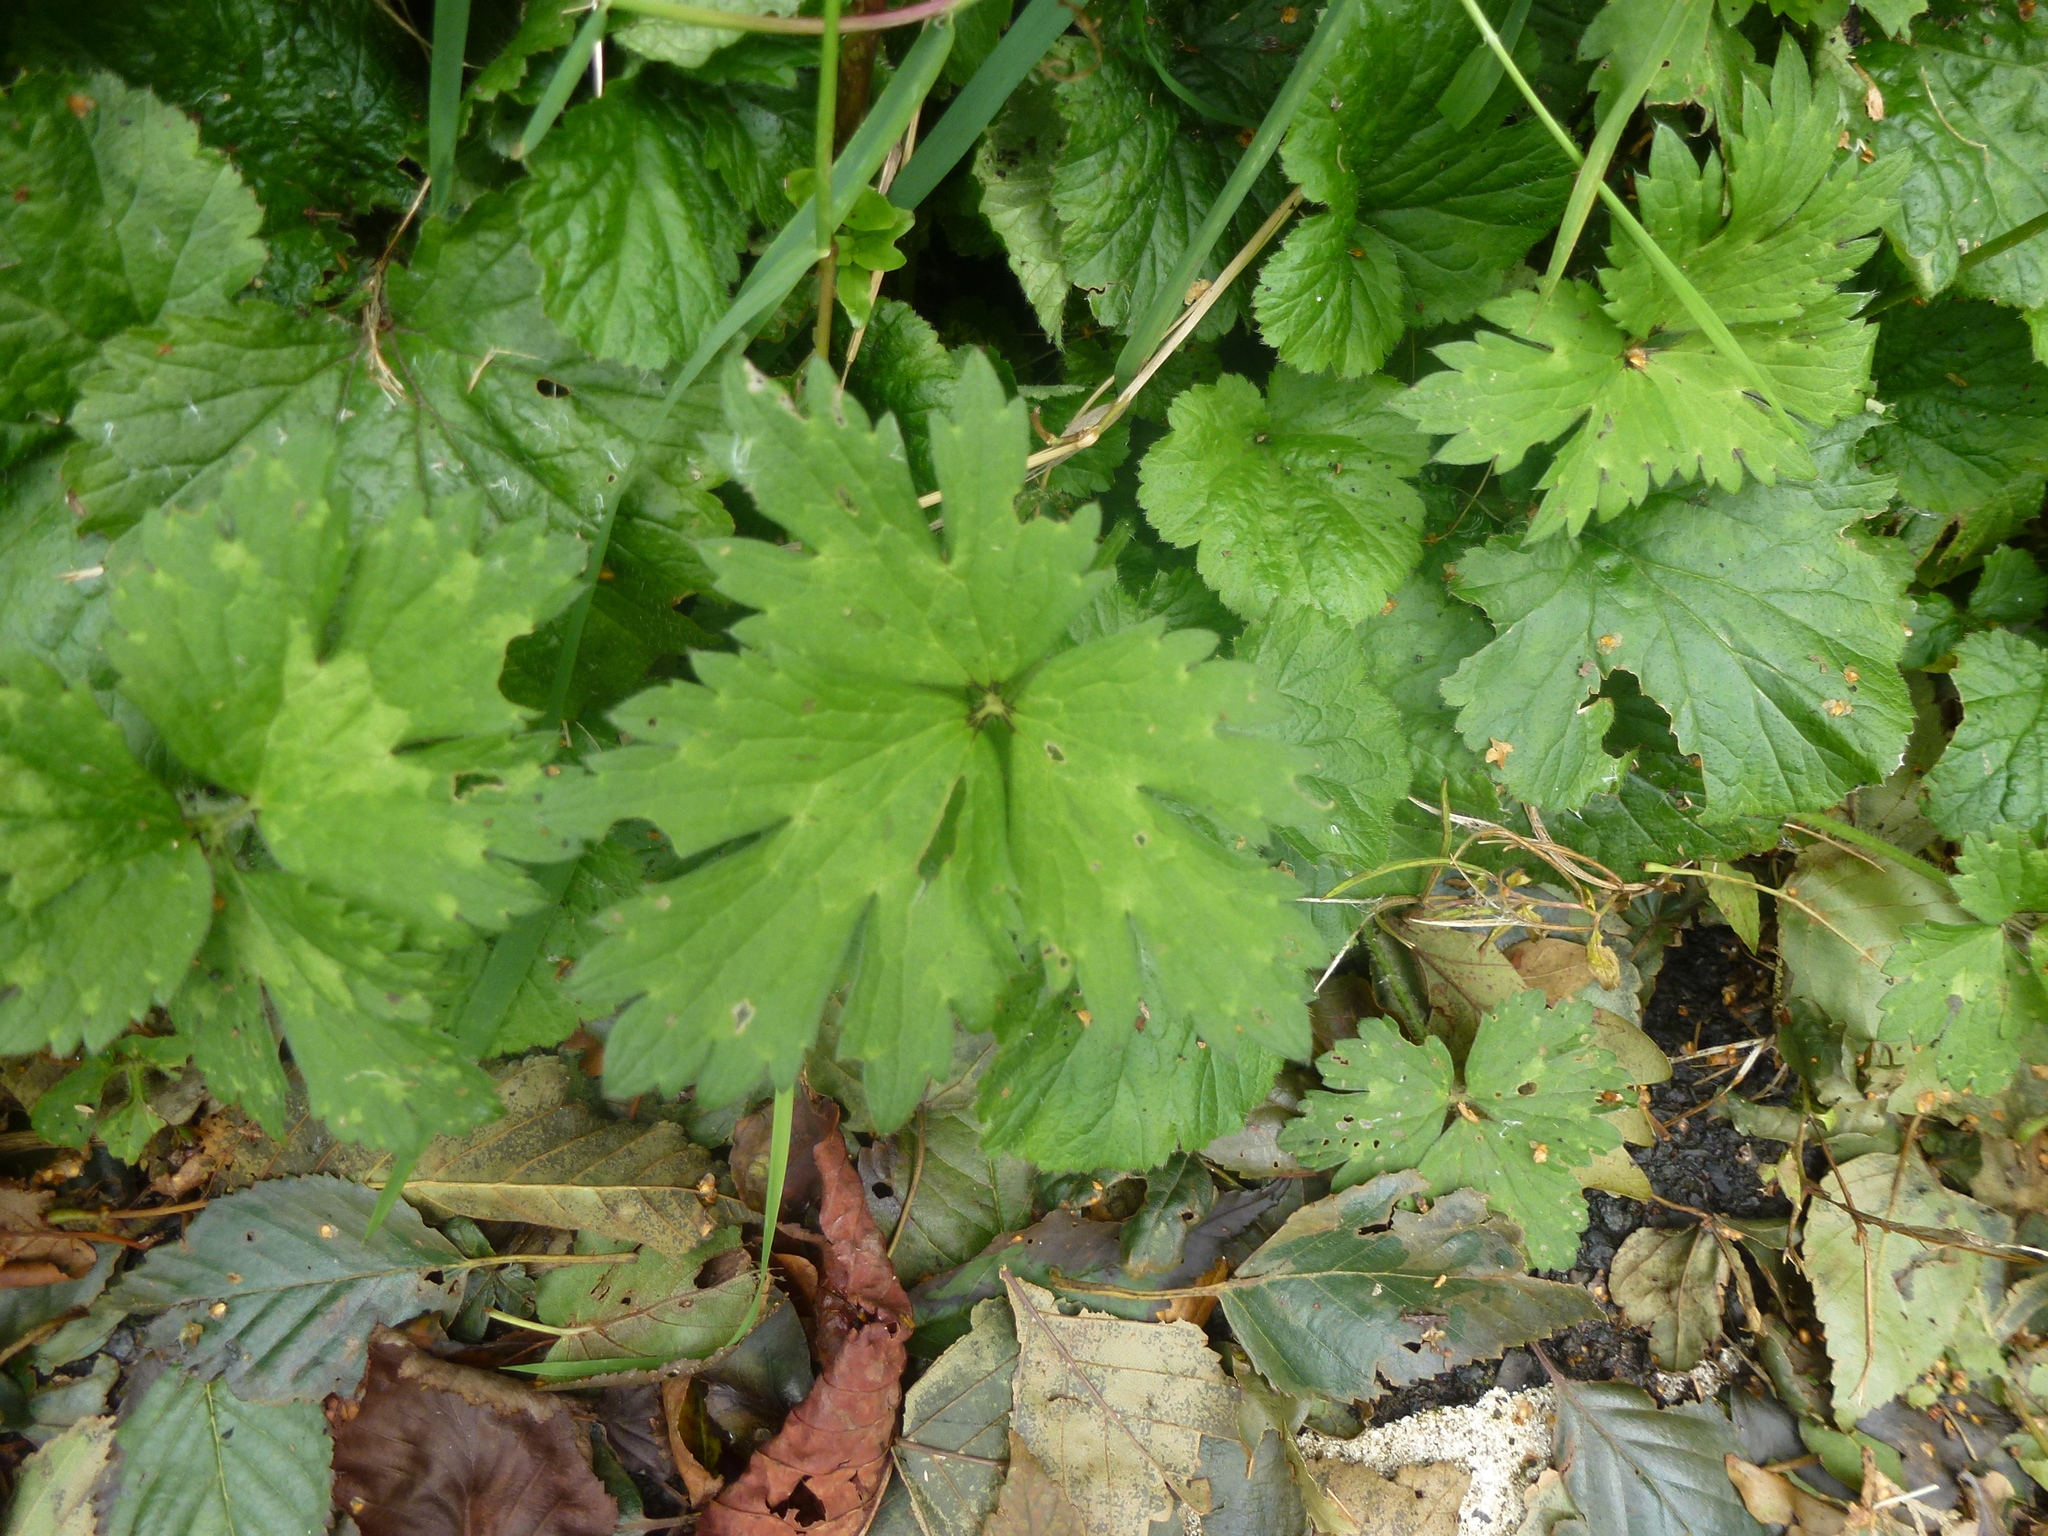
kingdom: Plantae
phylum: Tracheophyta
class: Magnoliopsida
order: Ranunculales
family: Ranunculaceae
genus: Ranunculus
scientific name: Ranunculus repens
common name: Creeping buttercup
